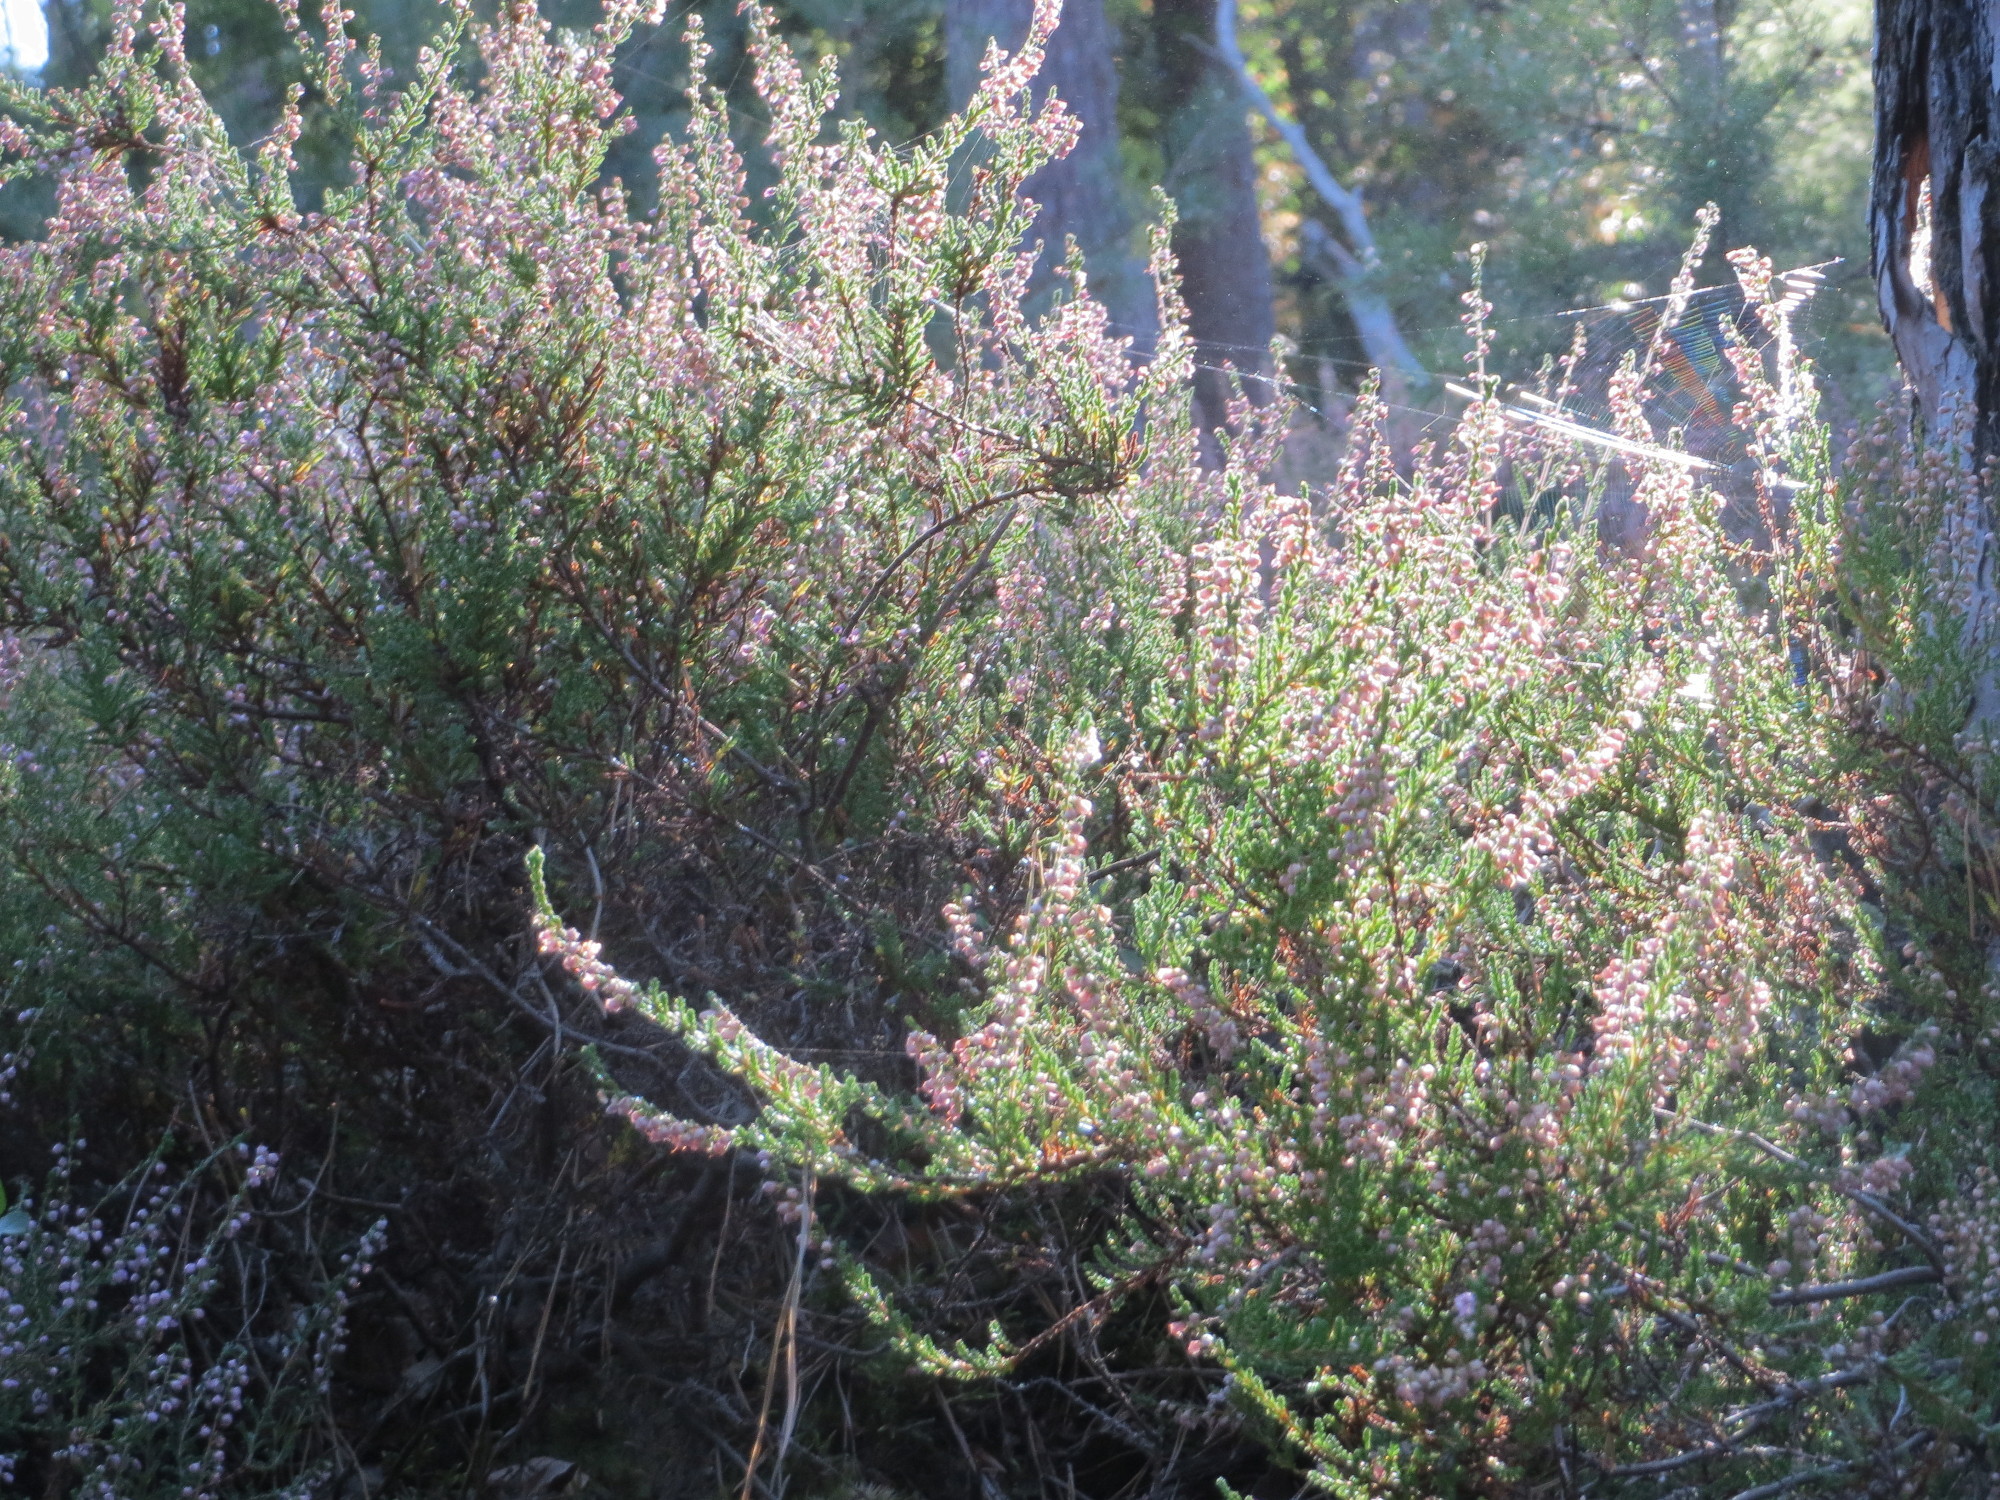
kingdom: Plantae
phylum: Tracheophyta
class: Magnoliopsida
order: Ericales
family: Ericaceae
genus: Calluna
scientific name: Calluna vulgaris
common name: Heather
